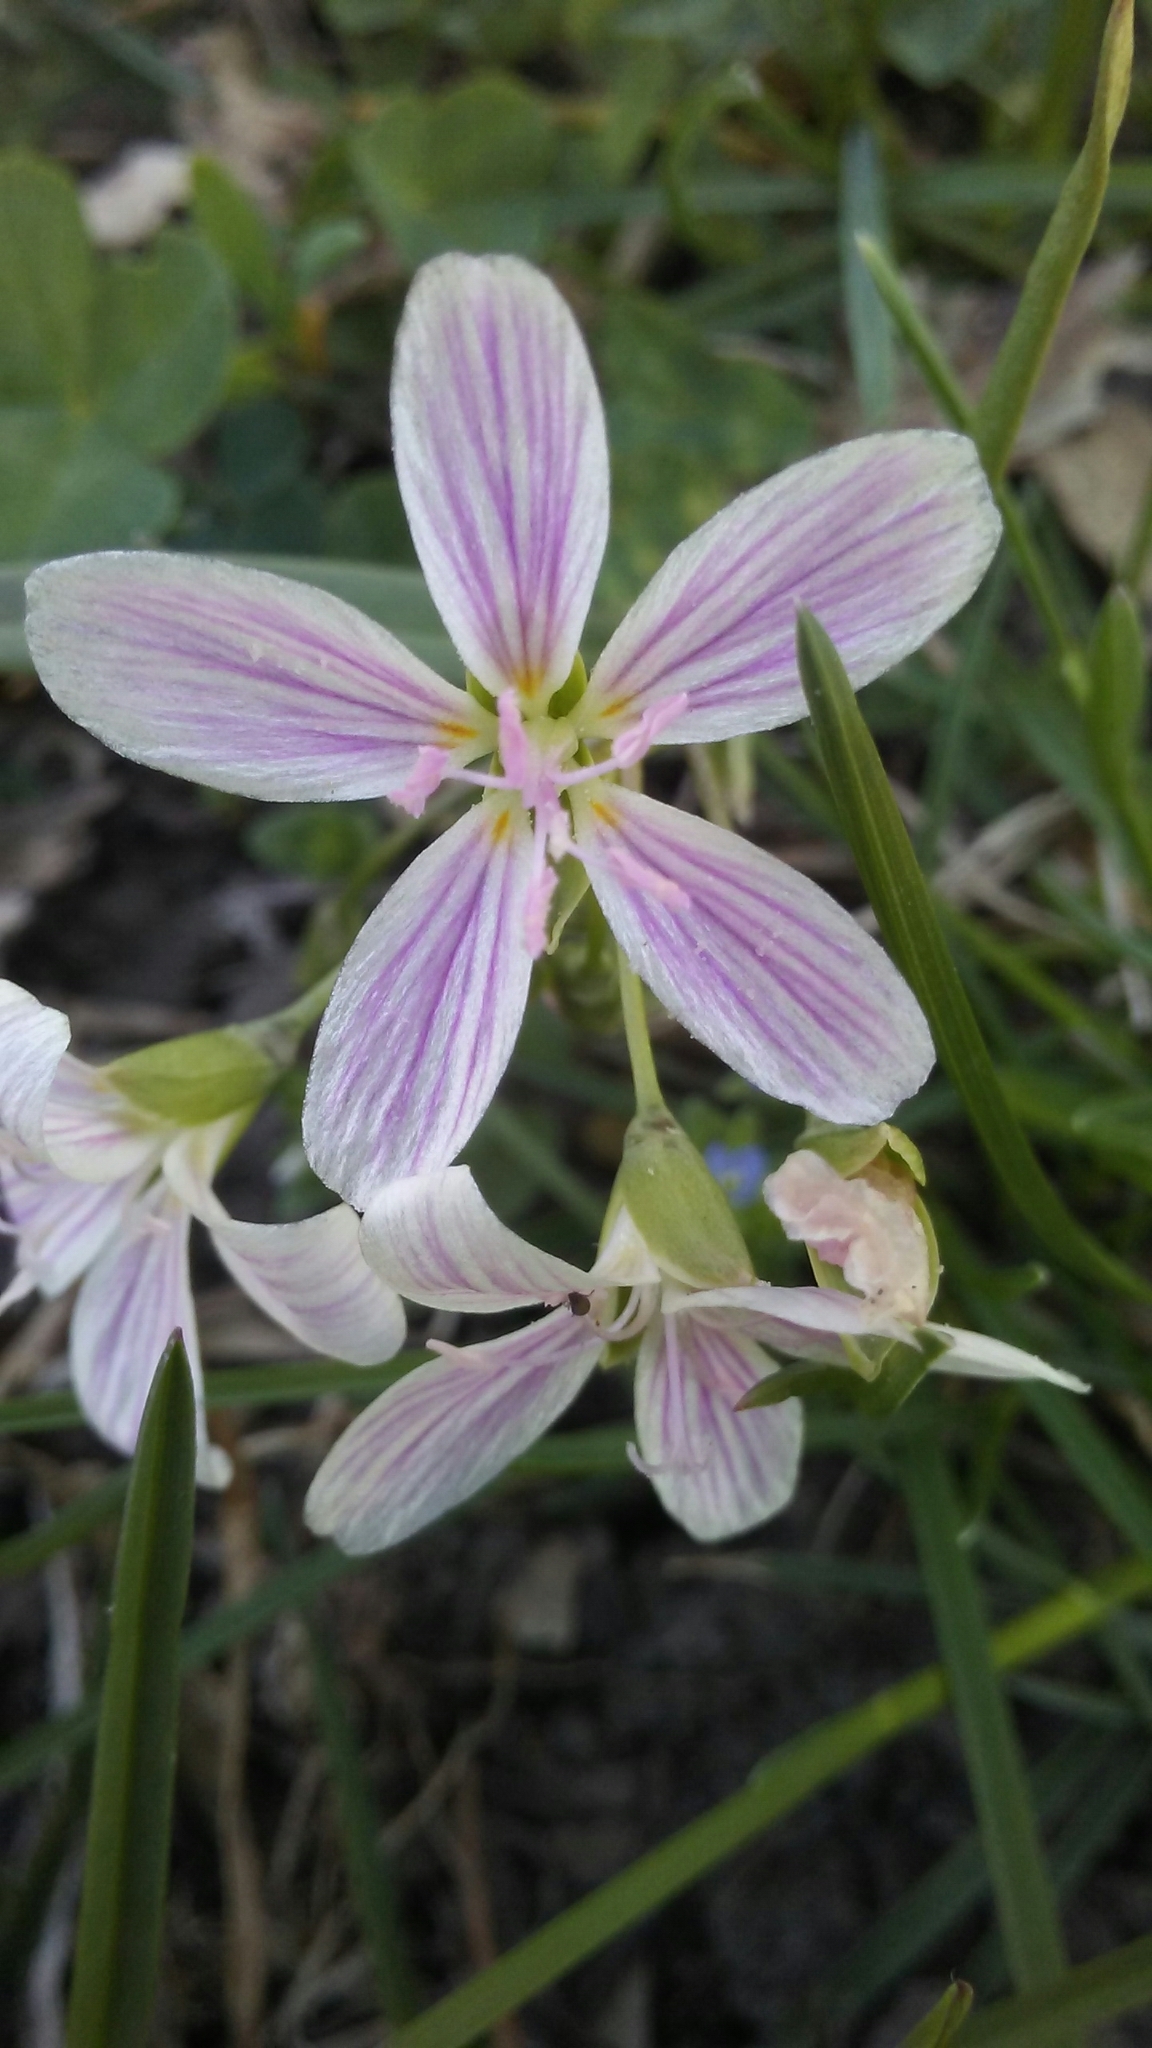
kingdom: Plantae
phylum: Tracheophyta
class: Magnoliopsida
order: Caryophyllales
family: Montiaceae
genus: Claytonia
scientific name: Claytonia virginica
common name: Virginia springbeauty
